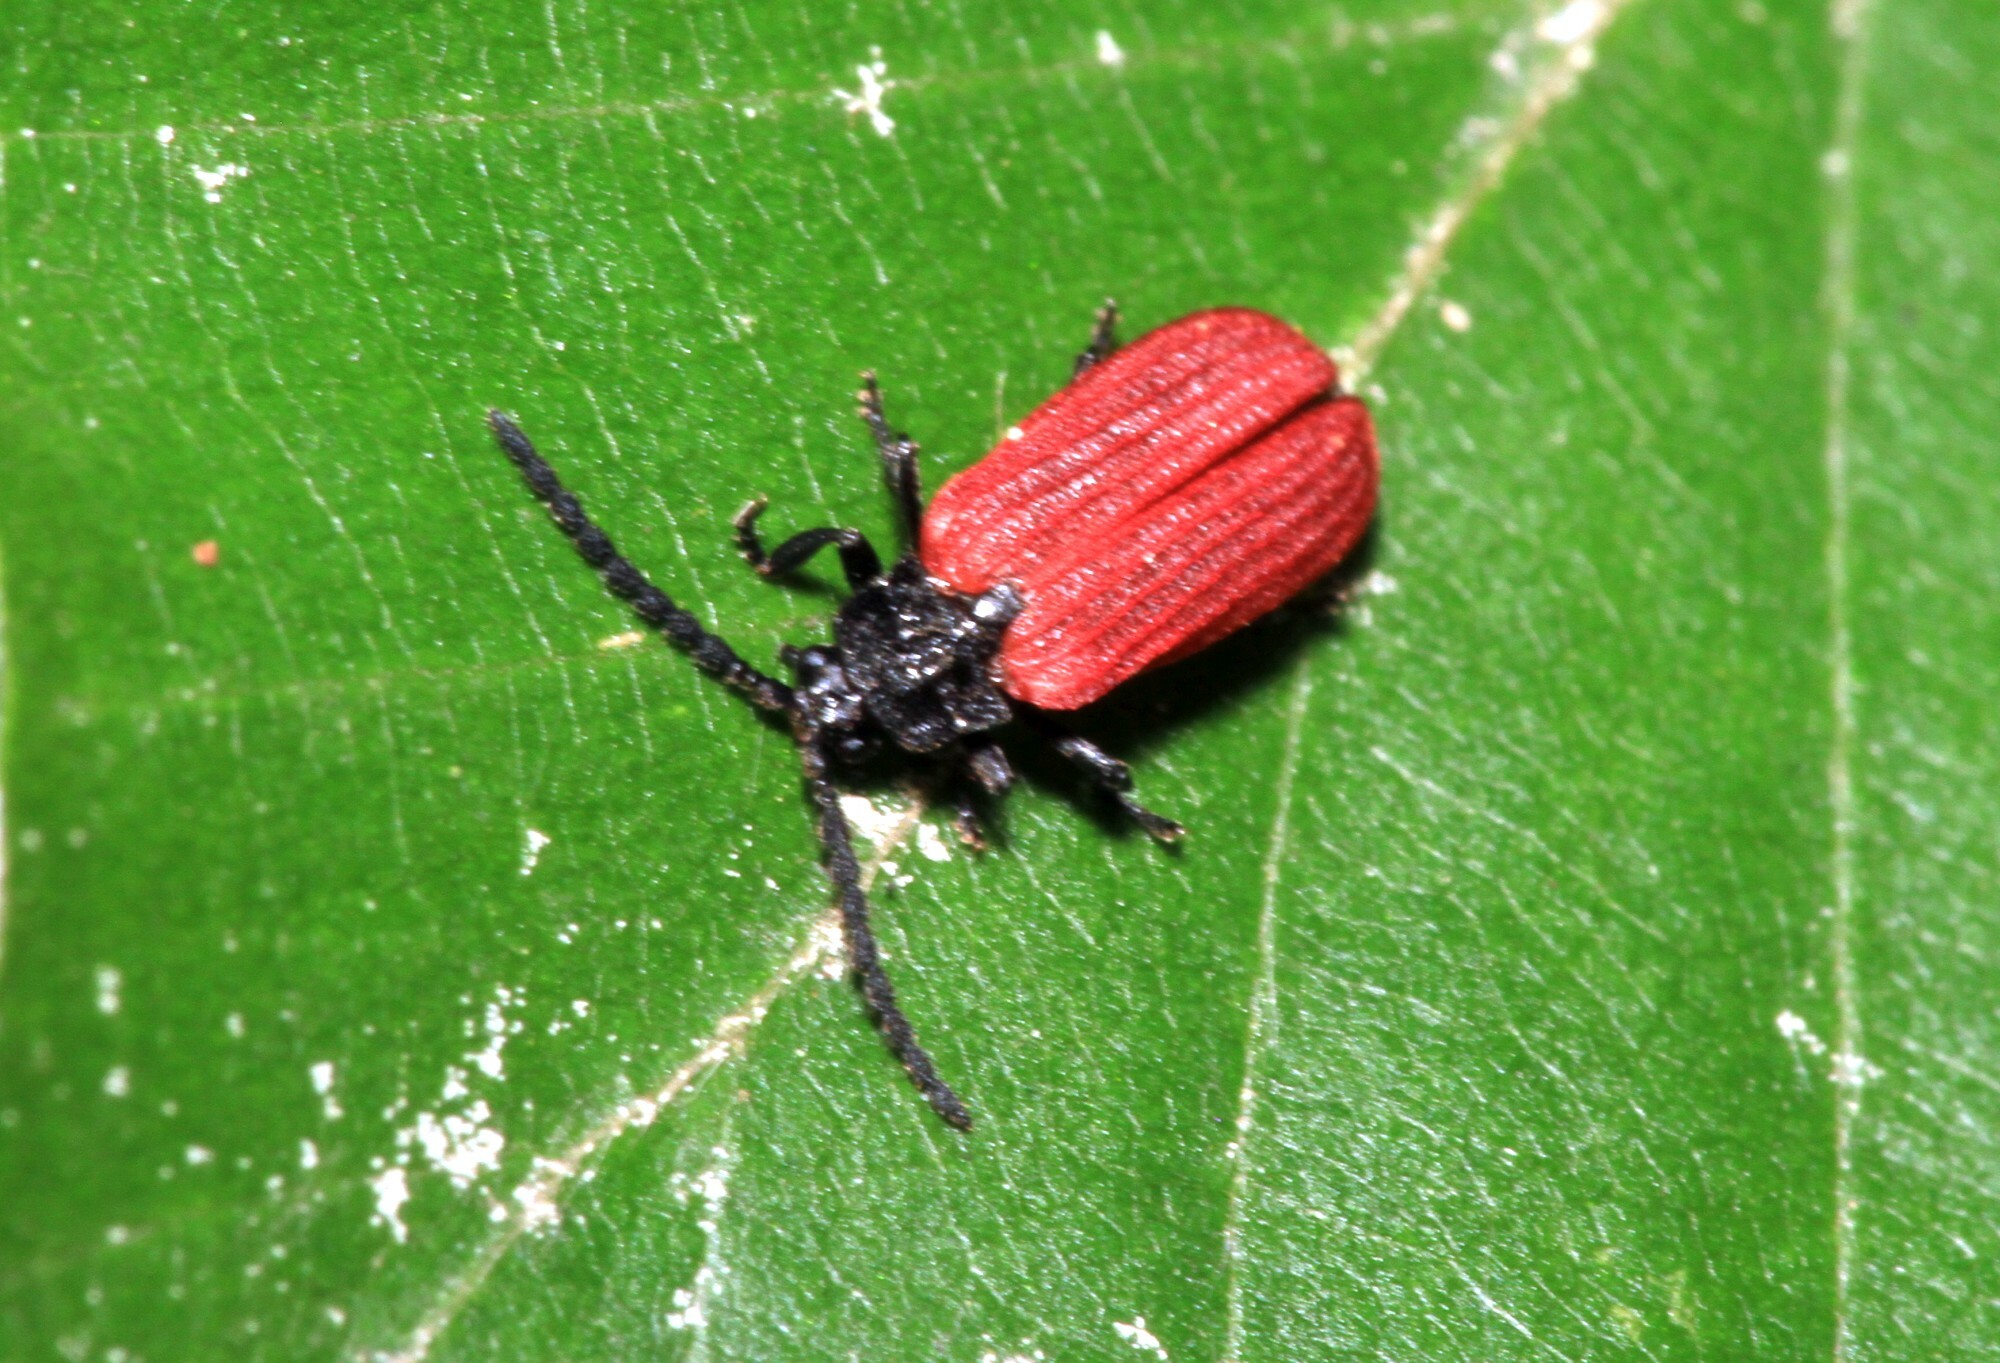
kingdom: Animalia
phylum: Arthropoda
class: Insecta
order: Coleoptera
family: Lycidae
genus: Pyropterus
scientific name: Pyropterus nigroruber
